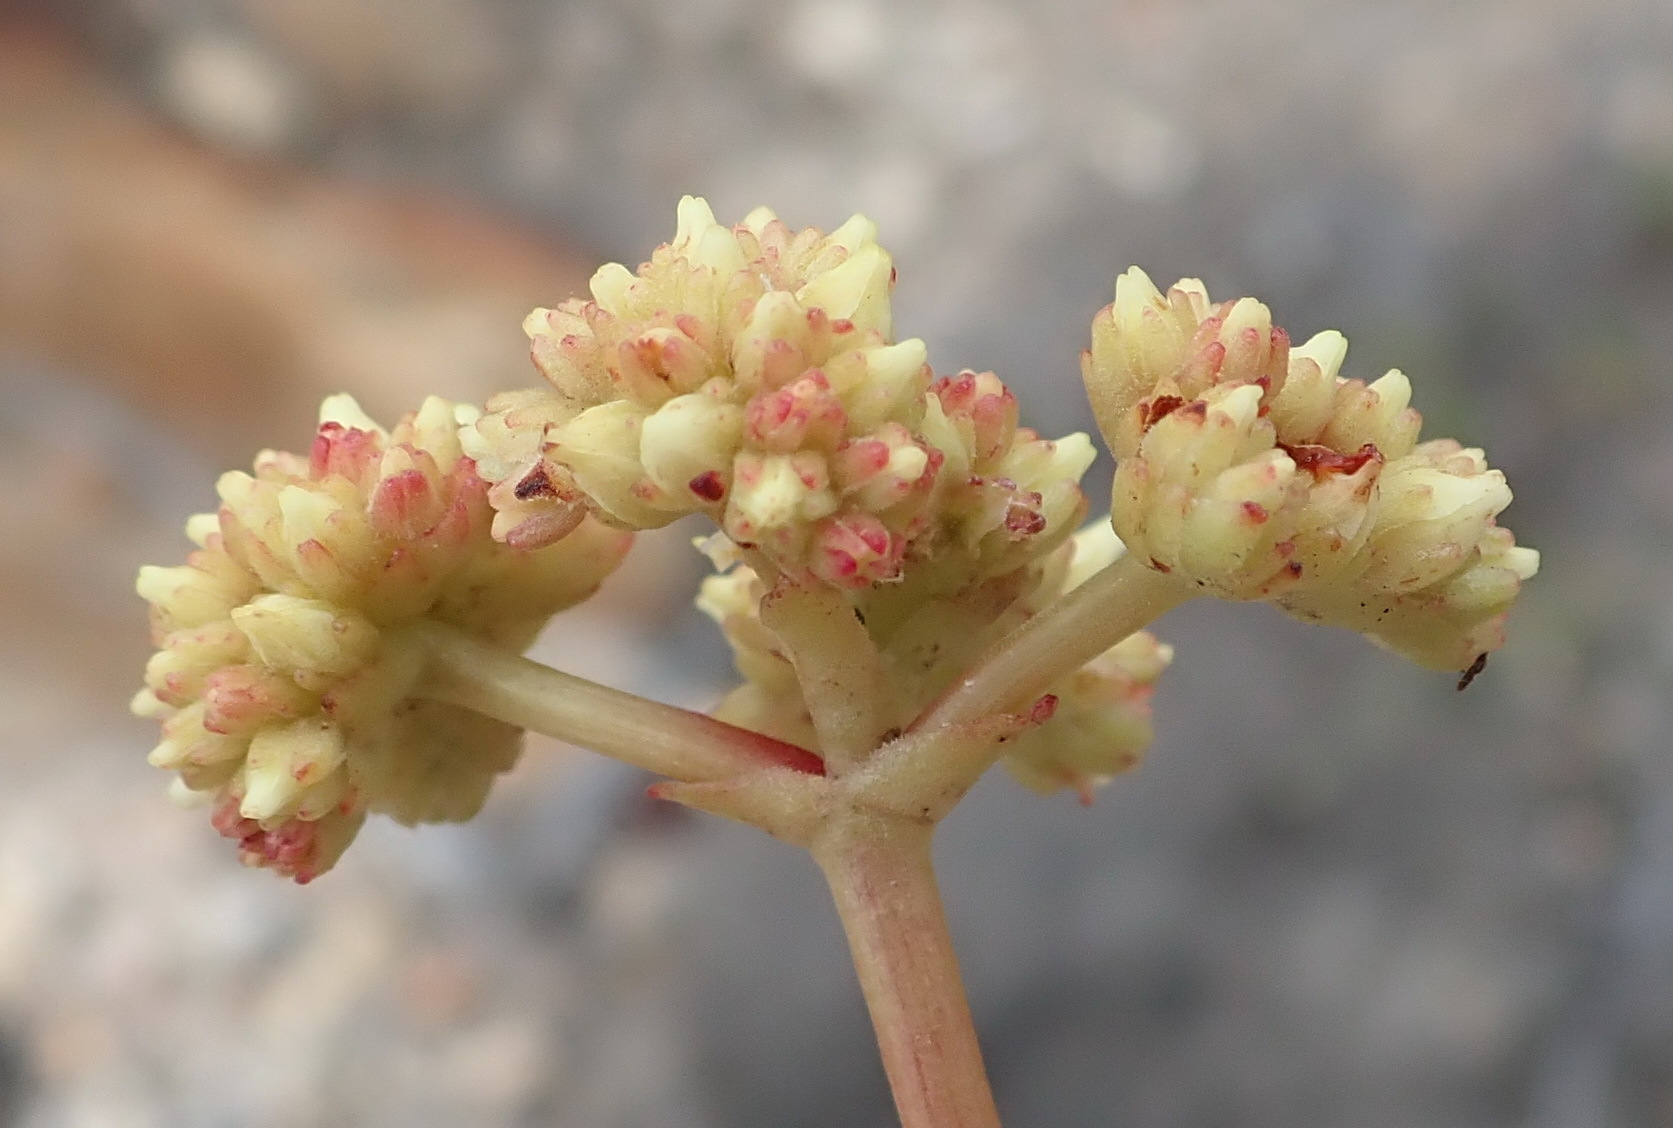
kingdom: Plantae
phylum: Tracheophyta
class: Magnoliopsida
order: Saxifragales
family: Crassulaceae
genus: Crassula
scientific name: Crassula atropurpurea
